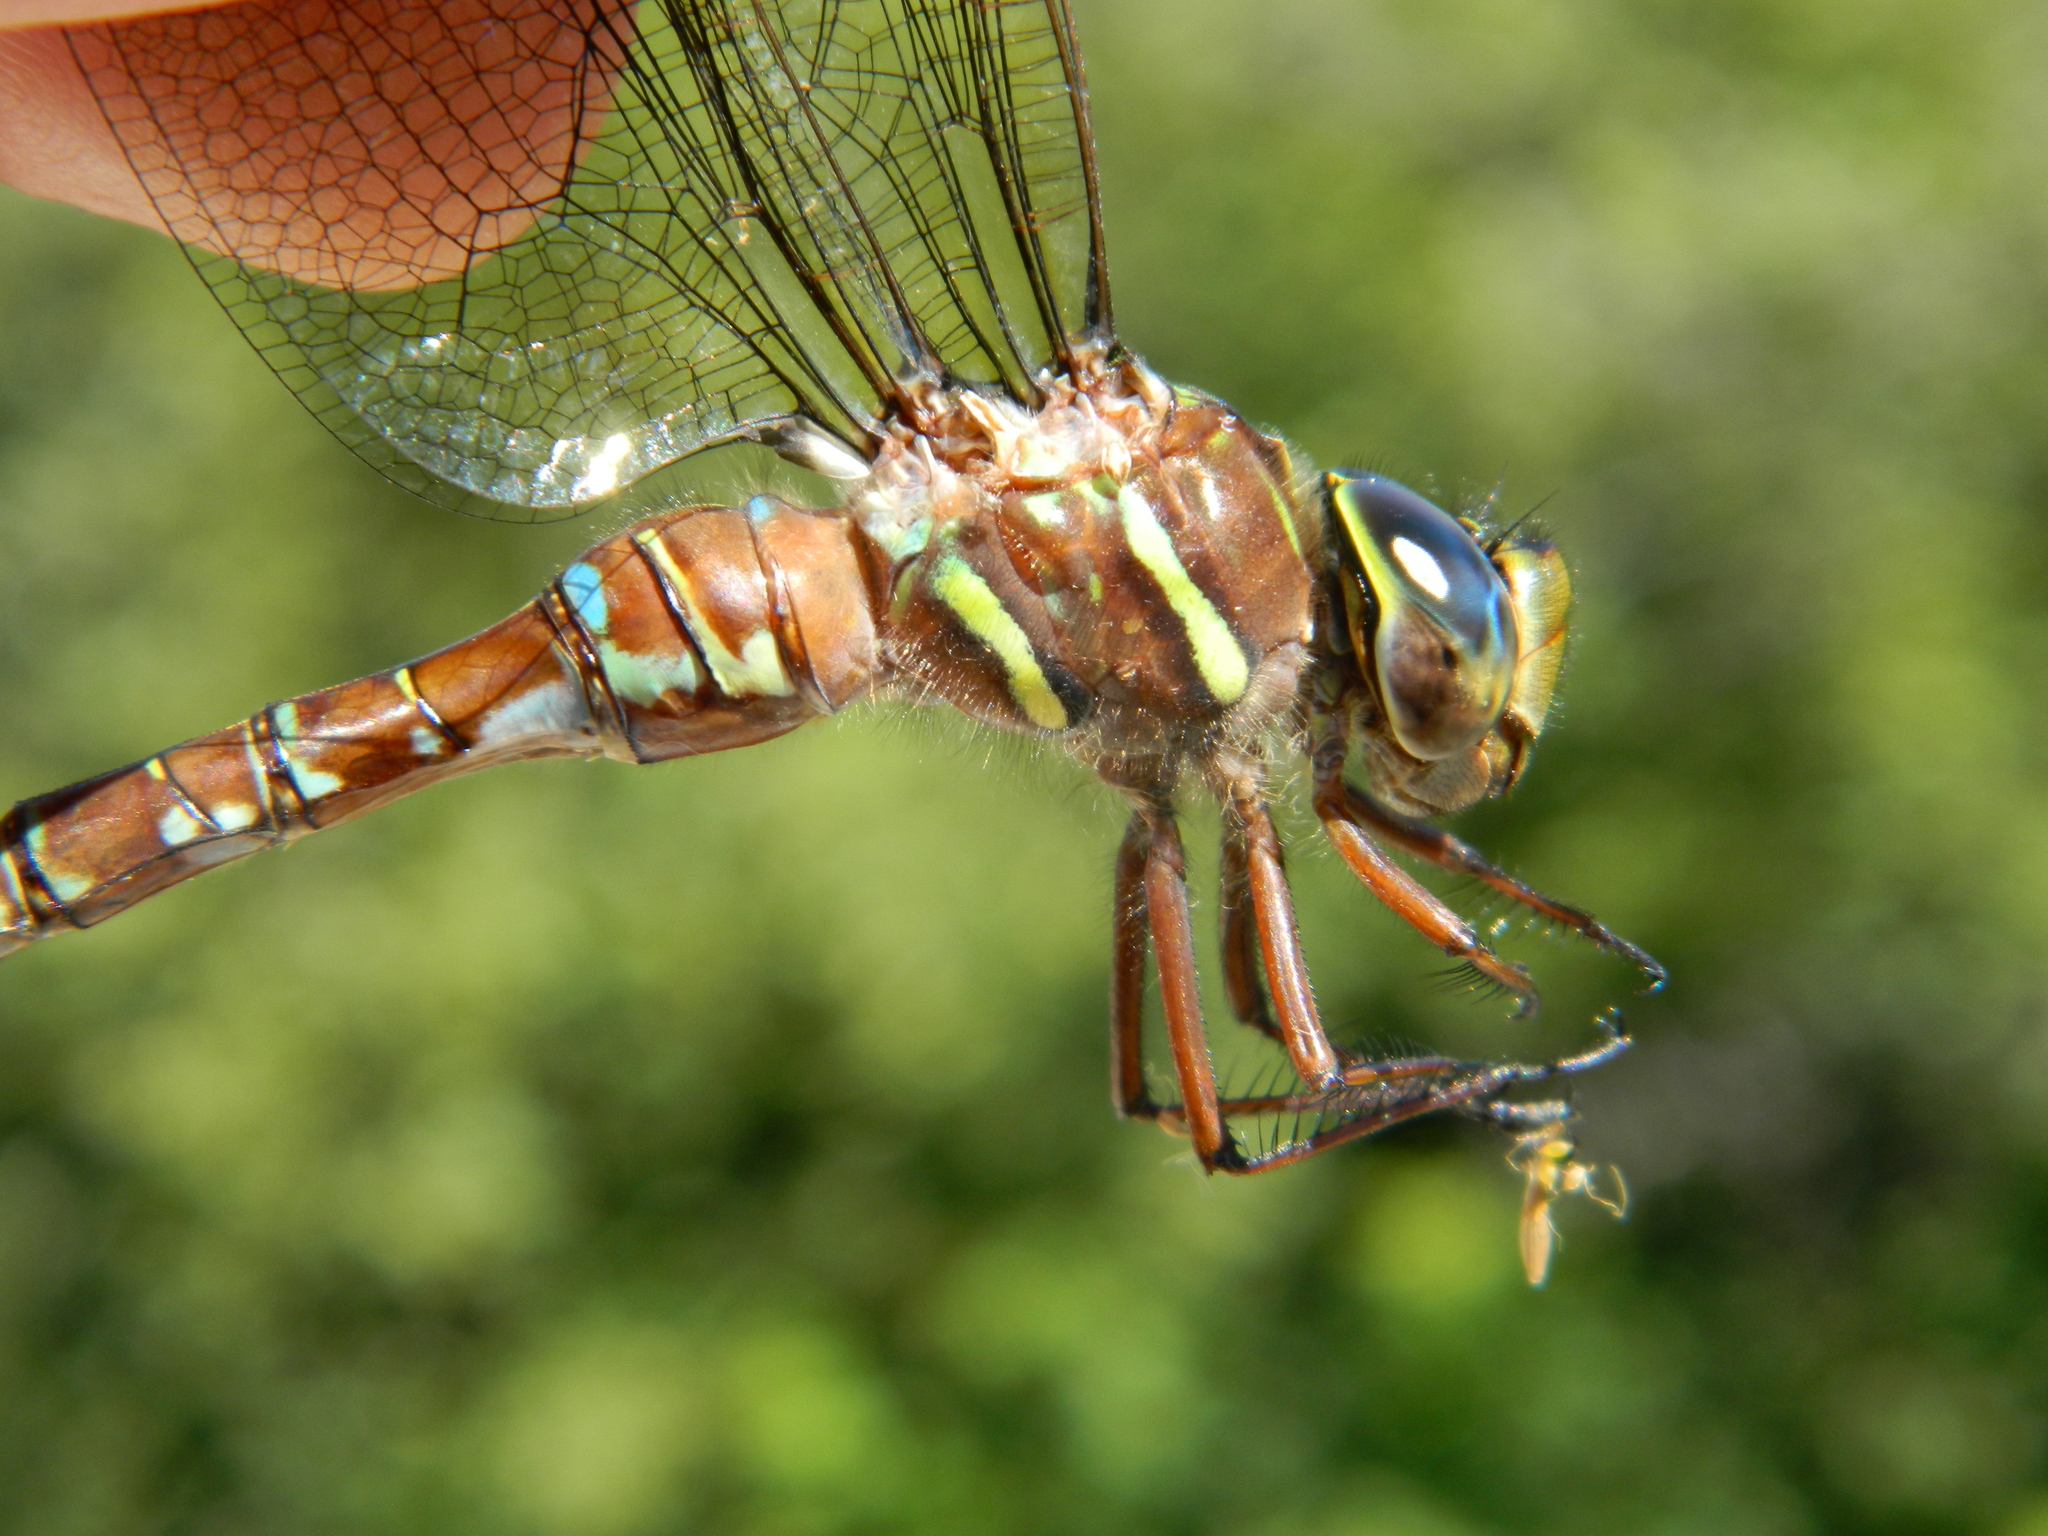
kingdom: Animalia
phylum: Arthropoda
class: Insecta
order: Odonata
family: Aeshnidae
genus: Aeshna
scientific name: Aeshna umbrosa
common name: Shadow darner
